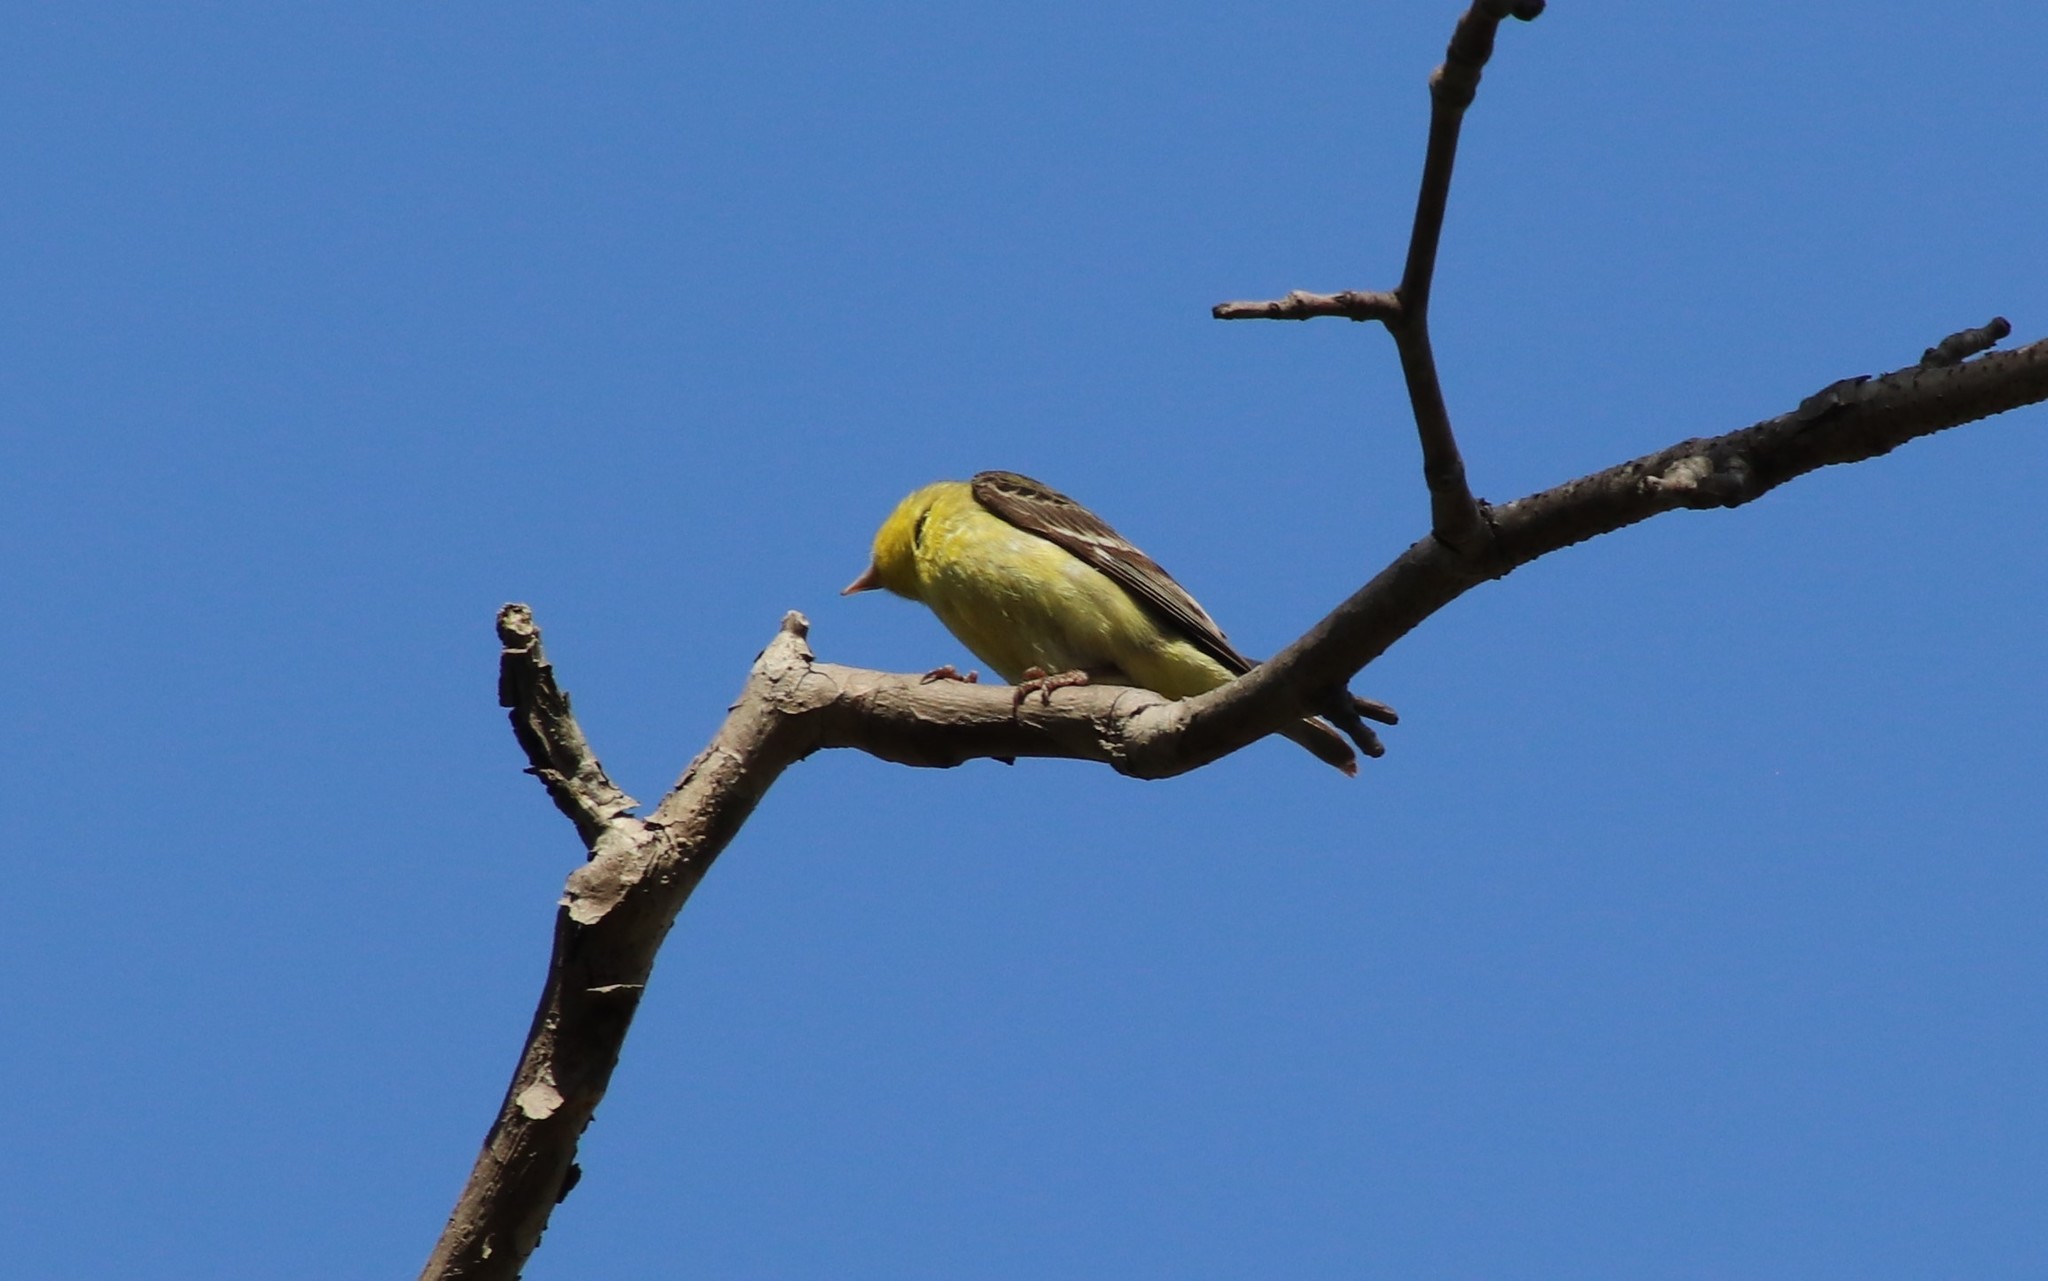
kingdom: Animalia
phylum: Chordata
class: Aves
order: Passeriformes
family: Fringillidae
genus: Spinus
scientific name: Spinus psaltria
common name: Lesser goldfinch
